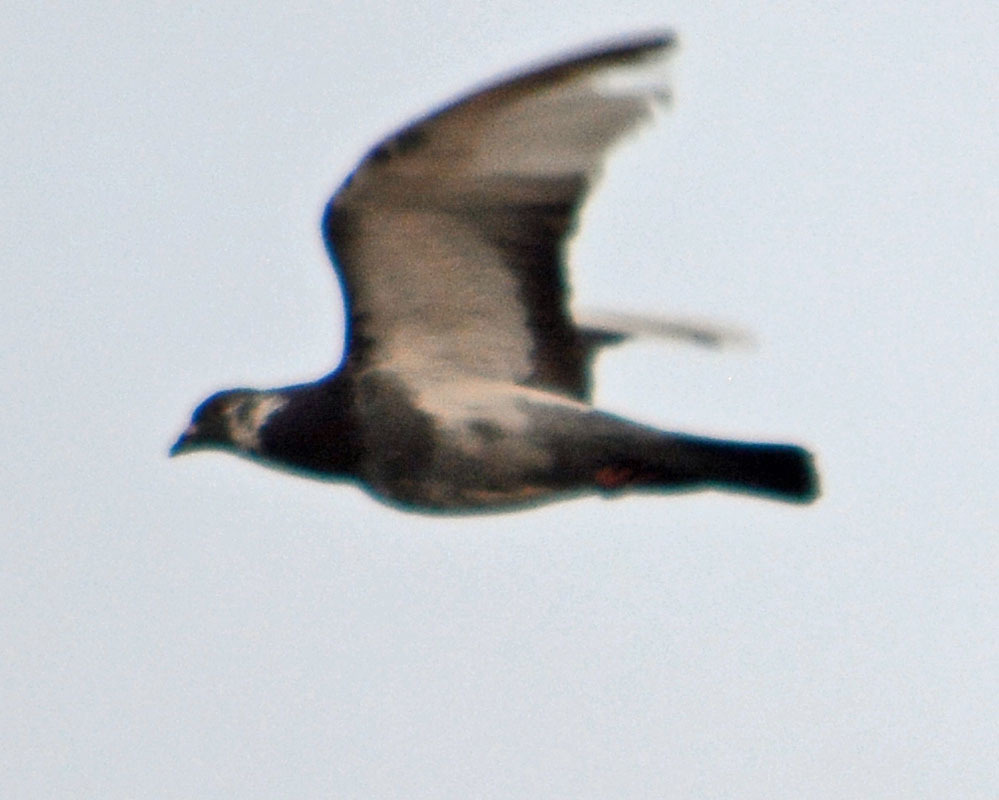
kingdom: Animalia
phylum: Chordata
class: Aves
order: Columbiformes
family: Columbidae
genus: Columba
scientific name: Columba livia
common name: Rock pigeon
